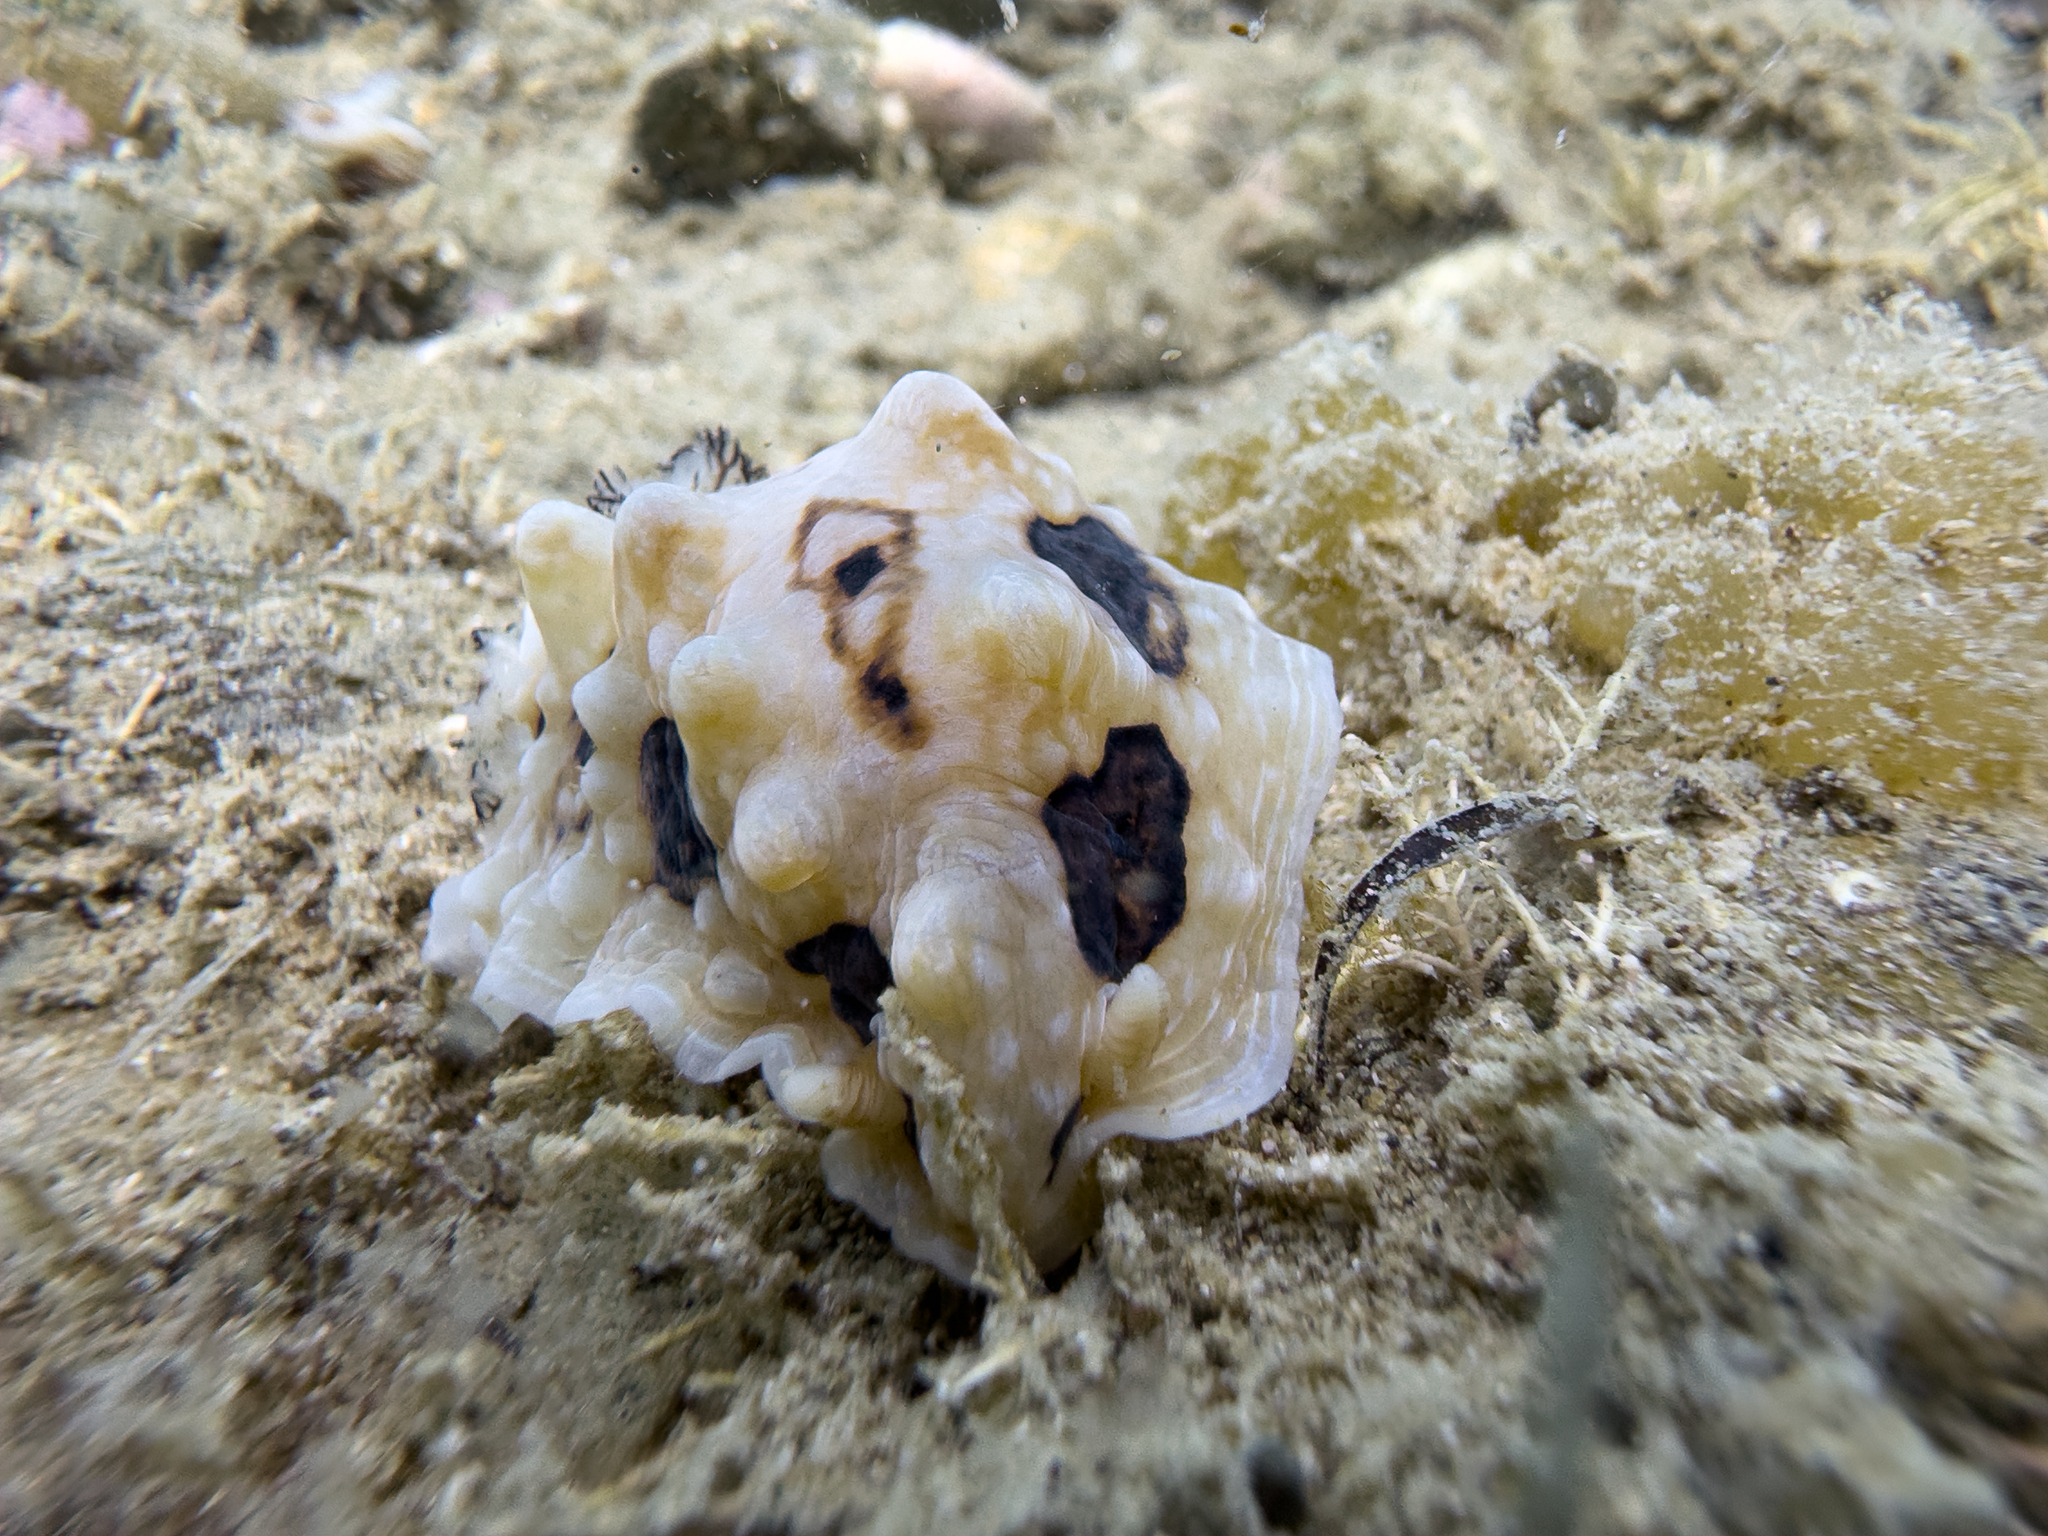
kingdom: Animalia
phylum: Mollusca
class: Gastropoda
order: Nudibranchia
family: Dendrodorididae
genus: Dendrodoris
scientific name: Dendrodoris krusensternii
